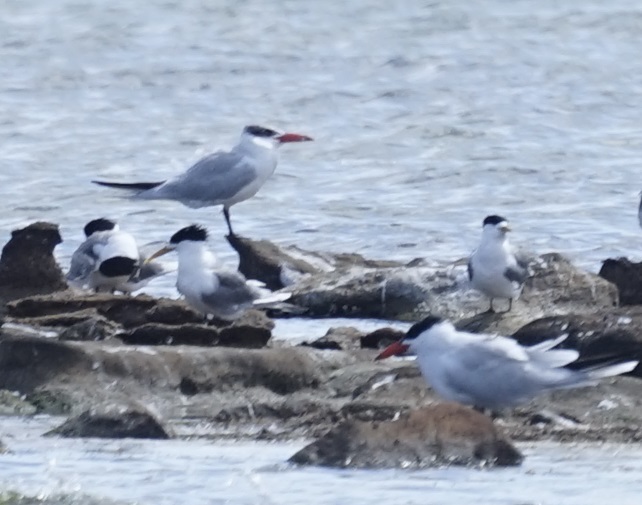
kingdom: Animalia
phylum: Chordata
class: Aves
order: Charadriiformes
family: Laridae
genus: Thalasseus
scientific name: Thalasseus bergii
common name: Greater crested tern
